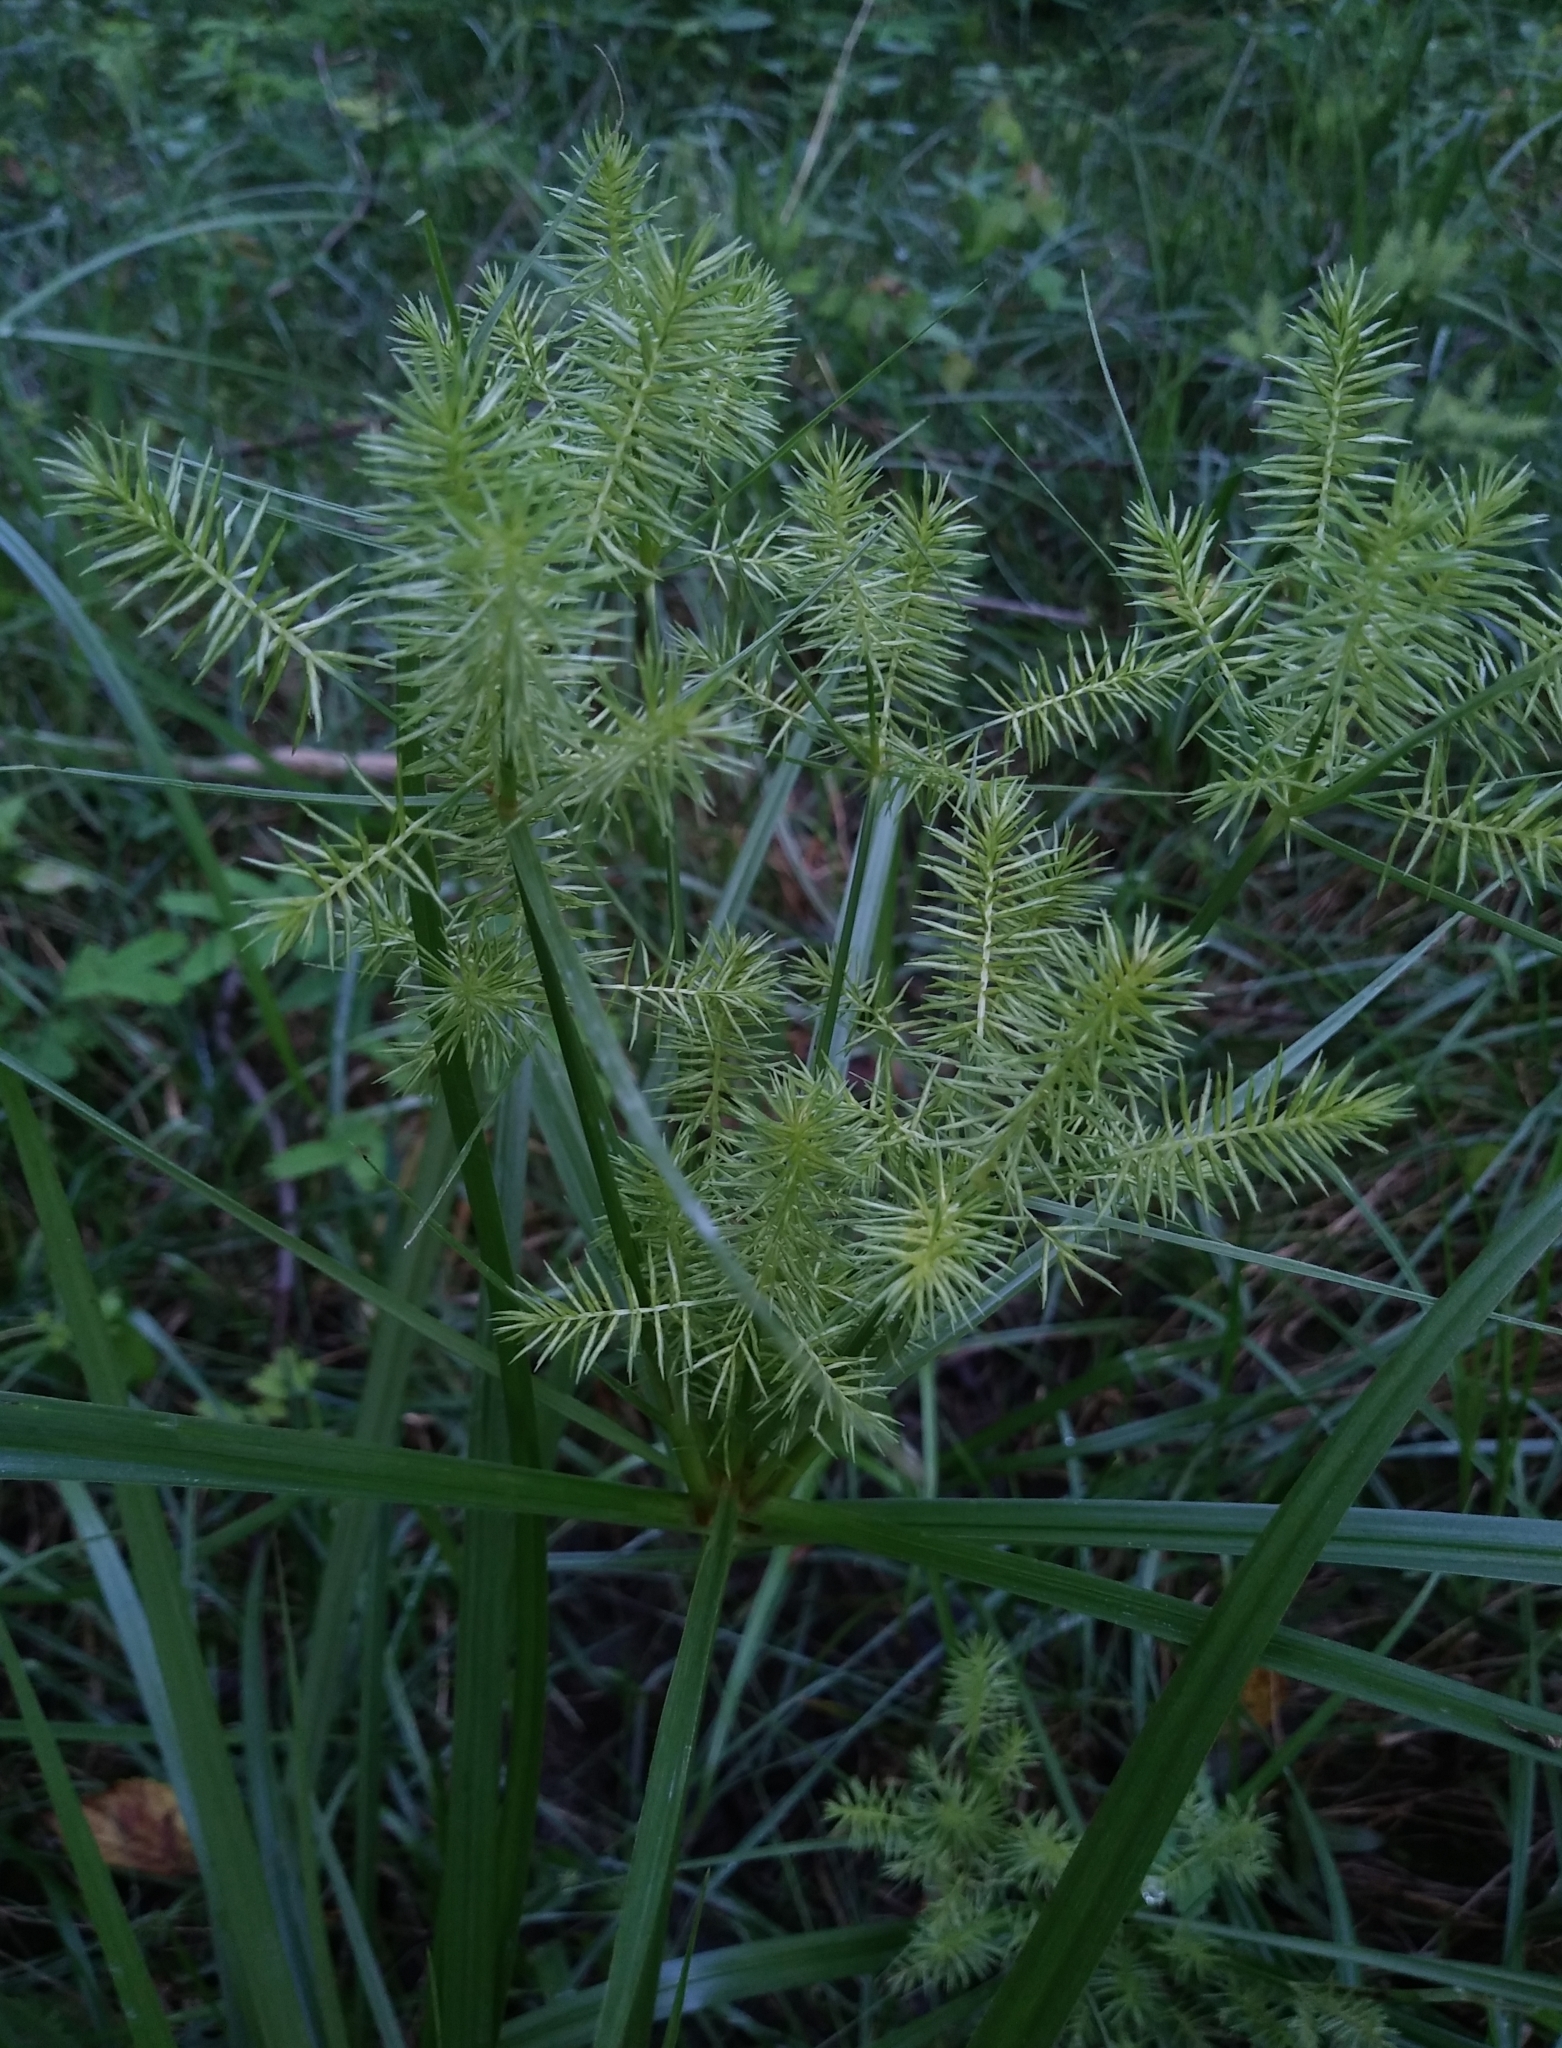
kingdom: Plantae
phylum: Tracheophyta
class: Liliopsida
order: Poales
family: Cyperaceae
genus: Cyperus
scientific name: Cyperus strigosus
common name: False nutsedge
